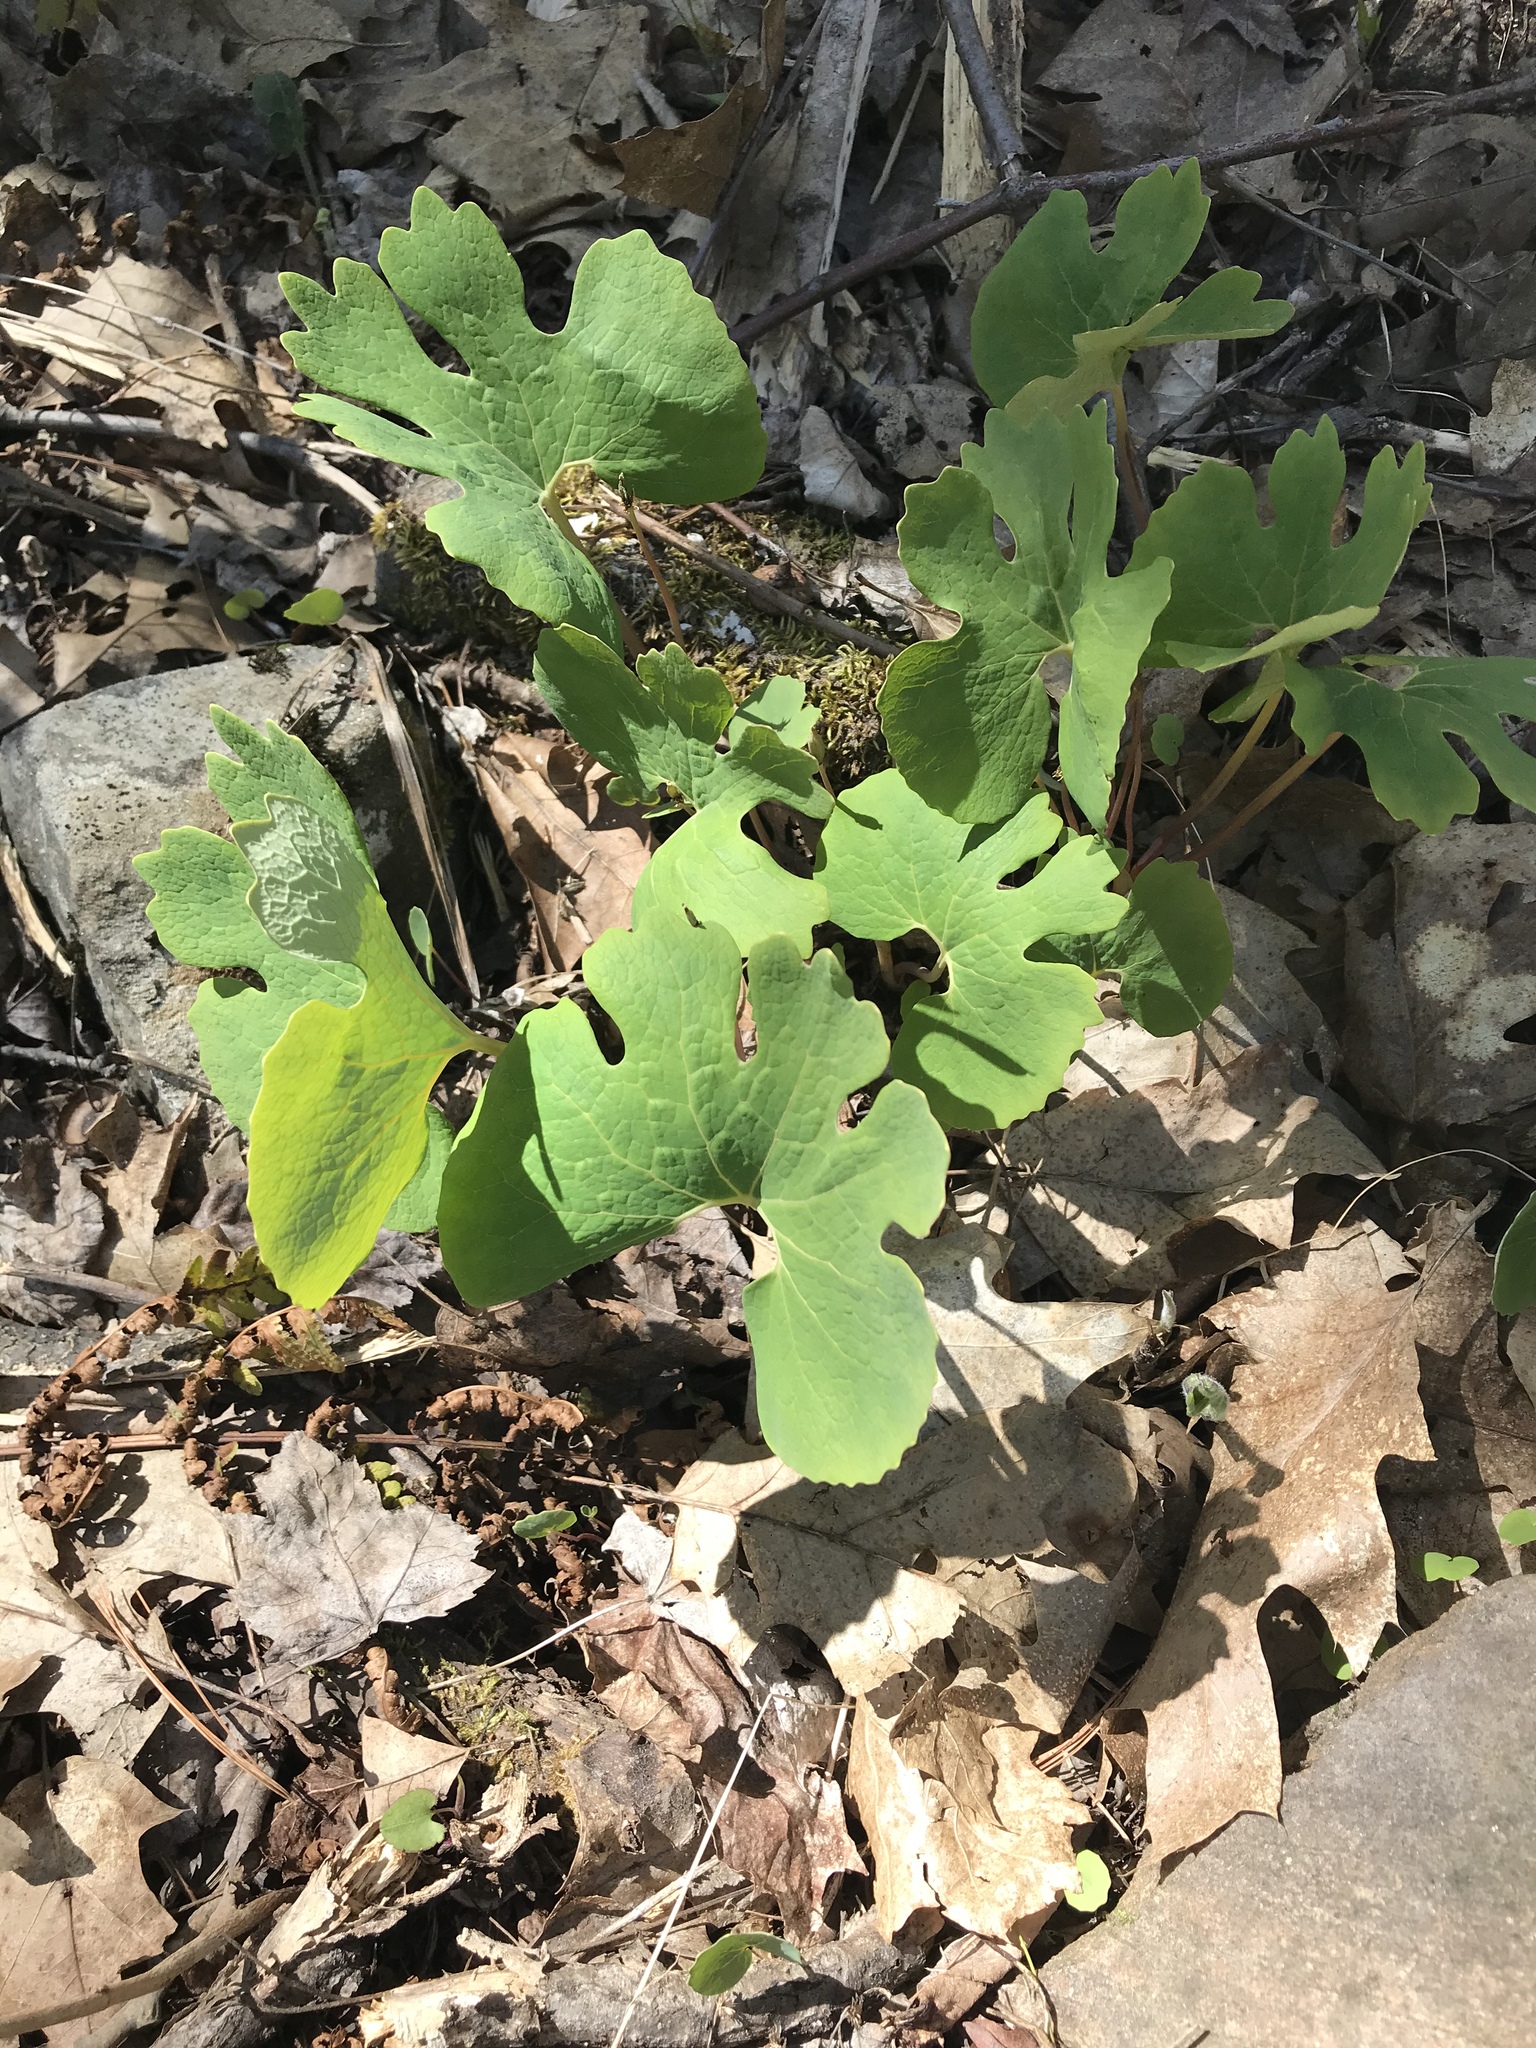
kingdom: Plantae
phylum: Tracheophyta
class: Magnoliopsida
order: Ranunculales
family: Papaveraceae
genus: Sanguinaria
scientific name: Sanguinaria canadensis
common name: Bloodroot
